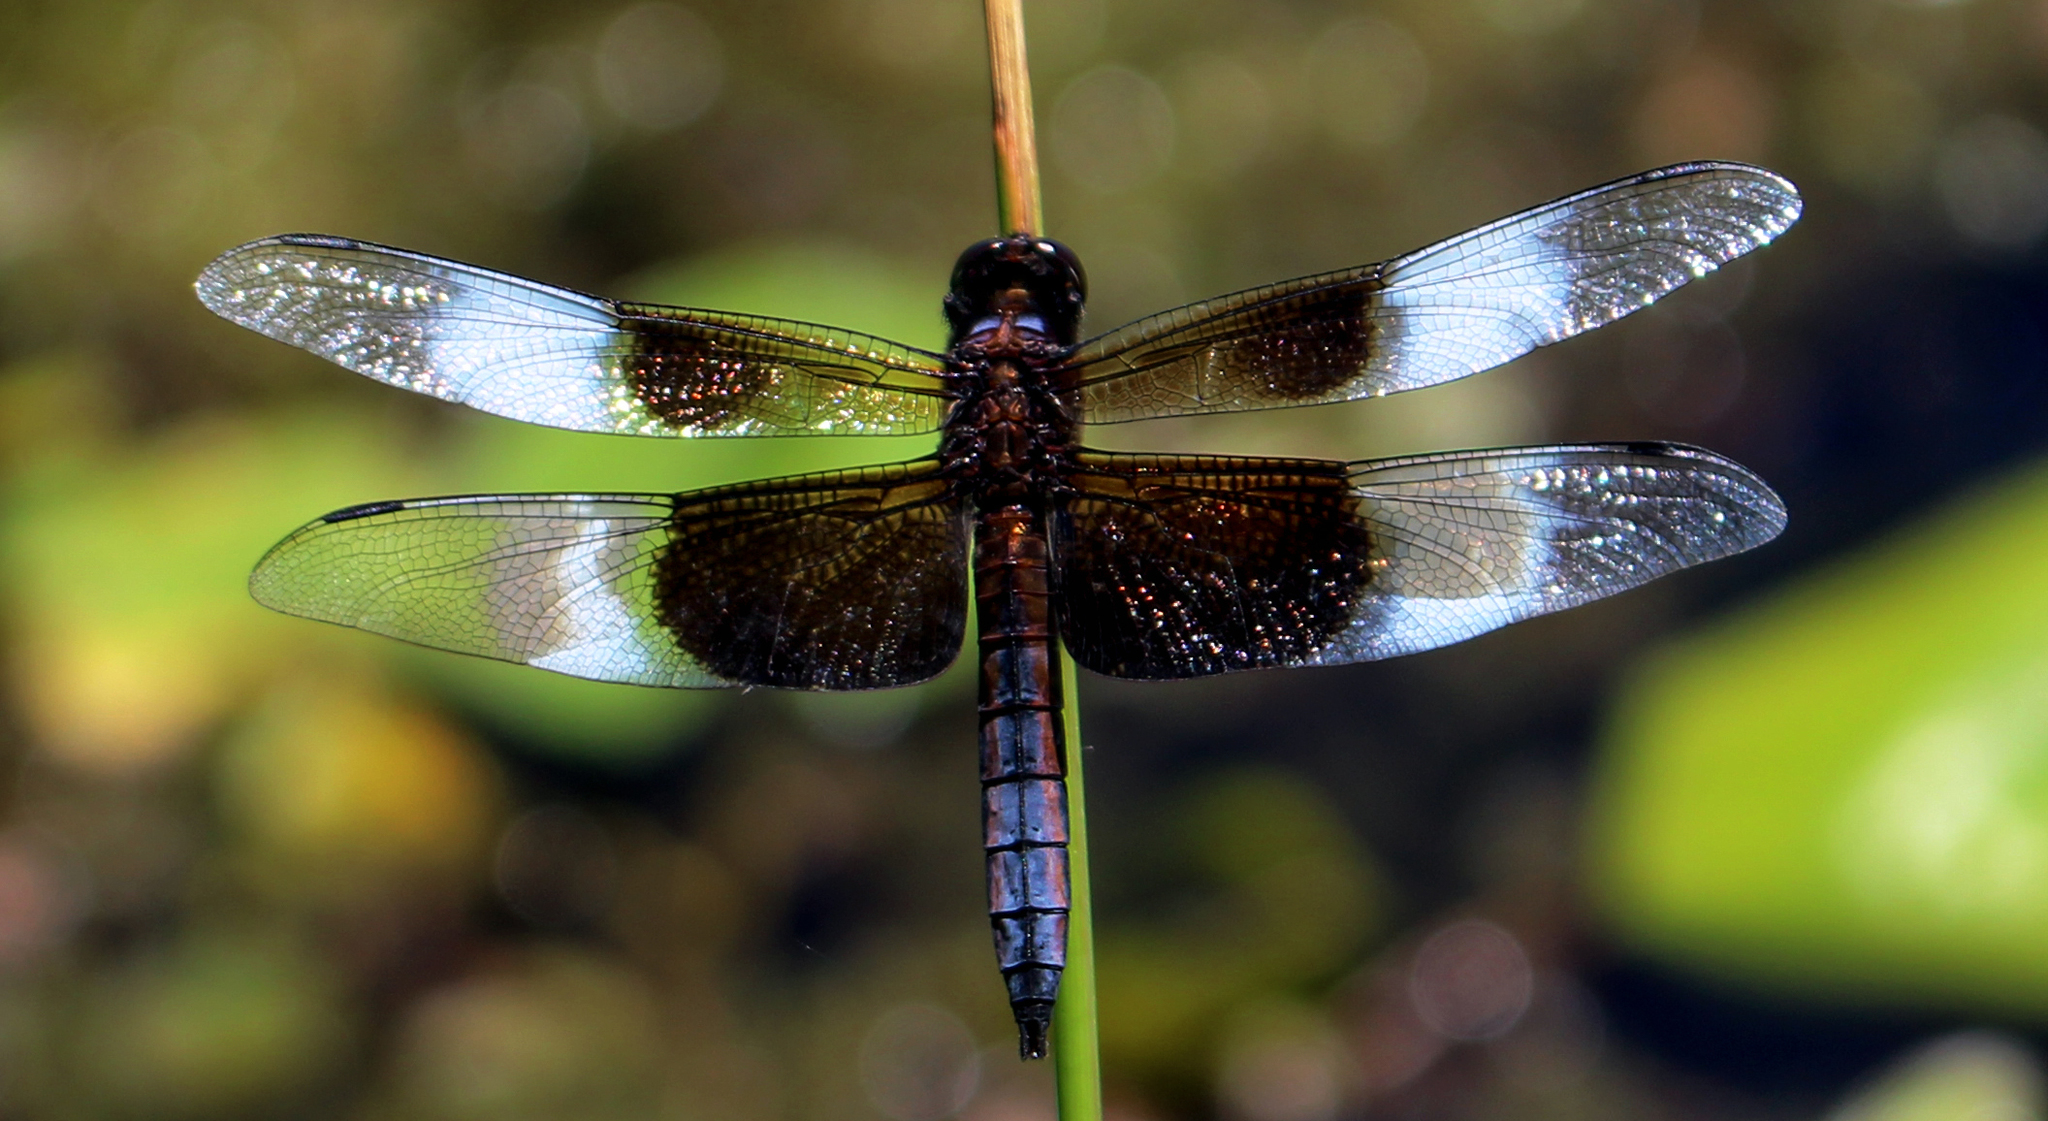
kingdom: Animalia
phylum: Arthropoda
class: Insecta
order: Odonata
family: Libellulidae
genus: Libellula
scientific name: Libellula luctuosa
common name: Widow skimmer
